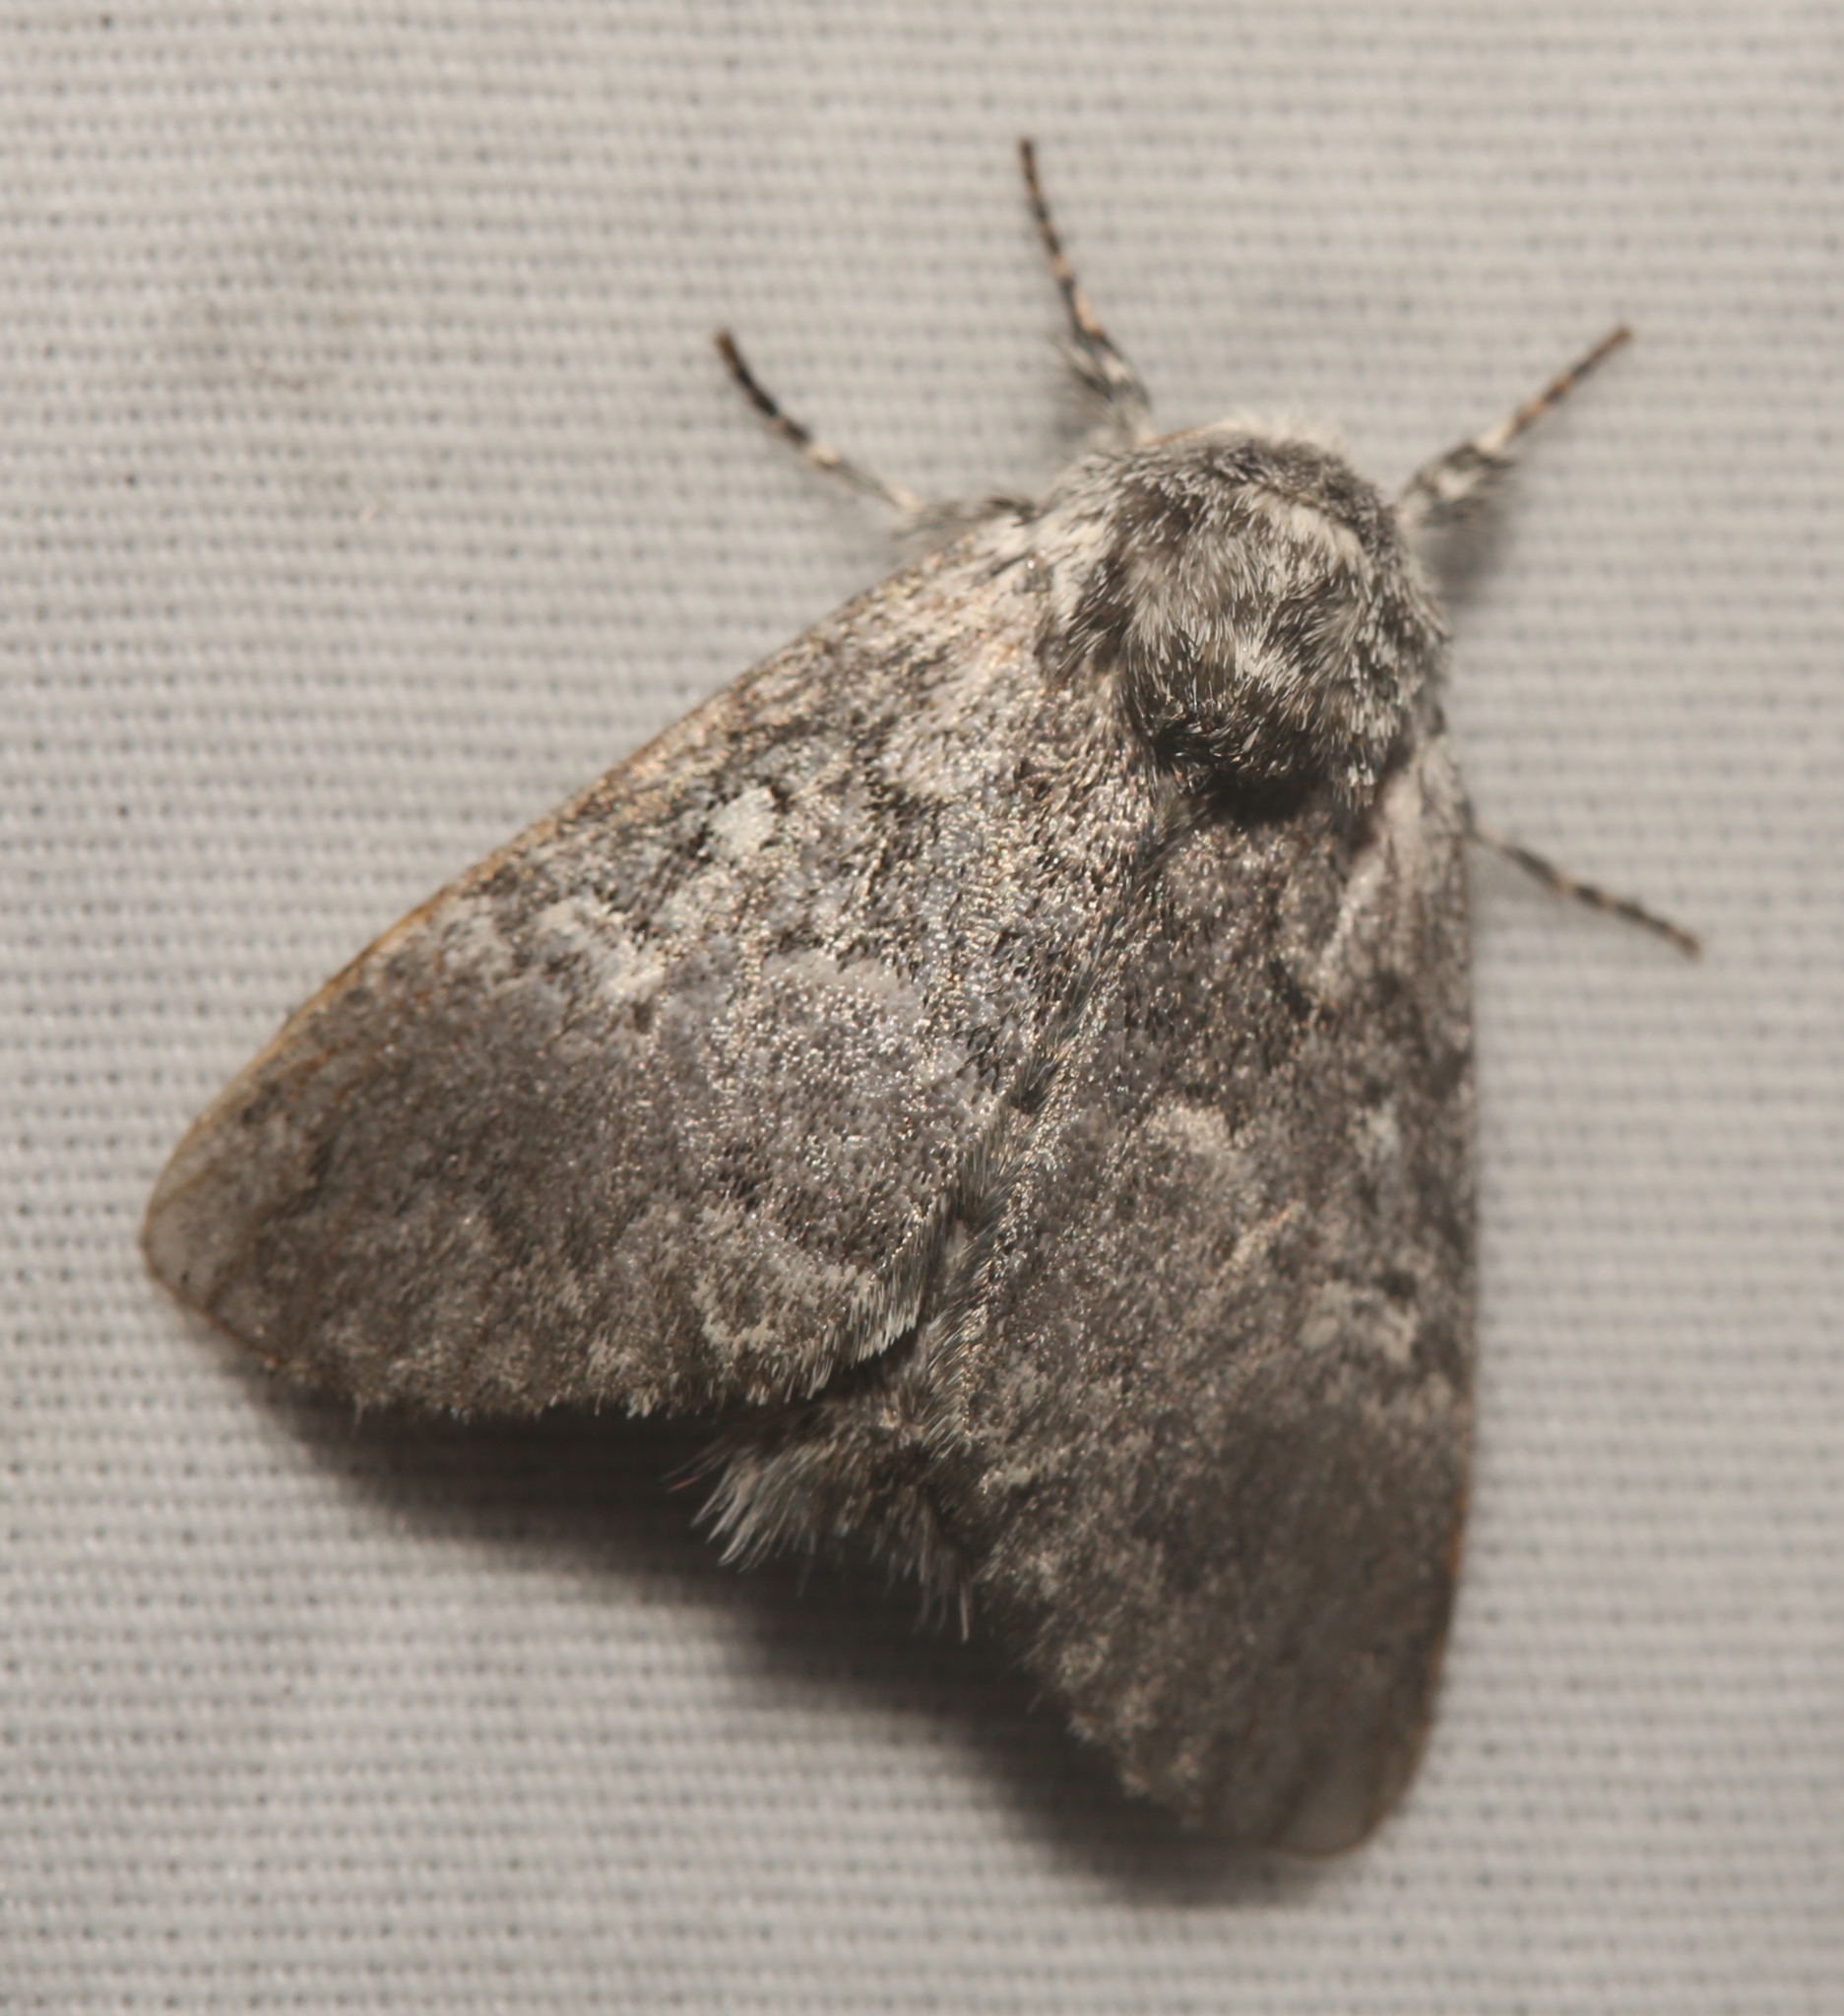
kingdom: Animalia
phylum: Arthropoda
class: Insecta
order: Lepidoptera
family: Noctuidae
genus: Colocasia
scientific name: Colocasia propinquilinea
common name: Close-banded demas
